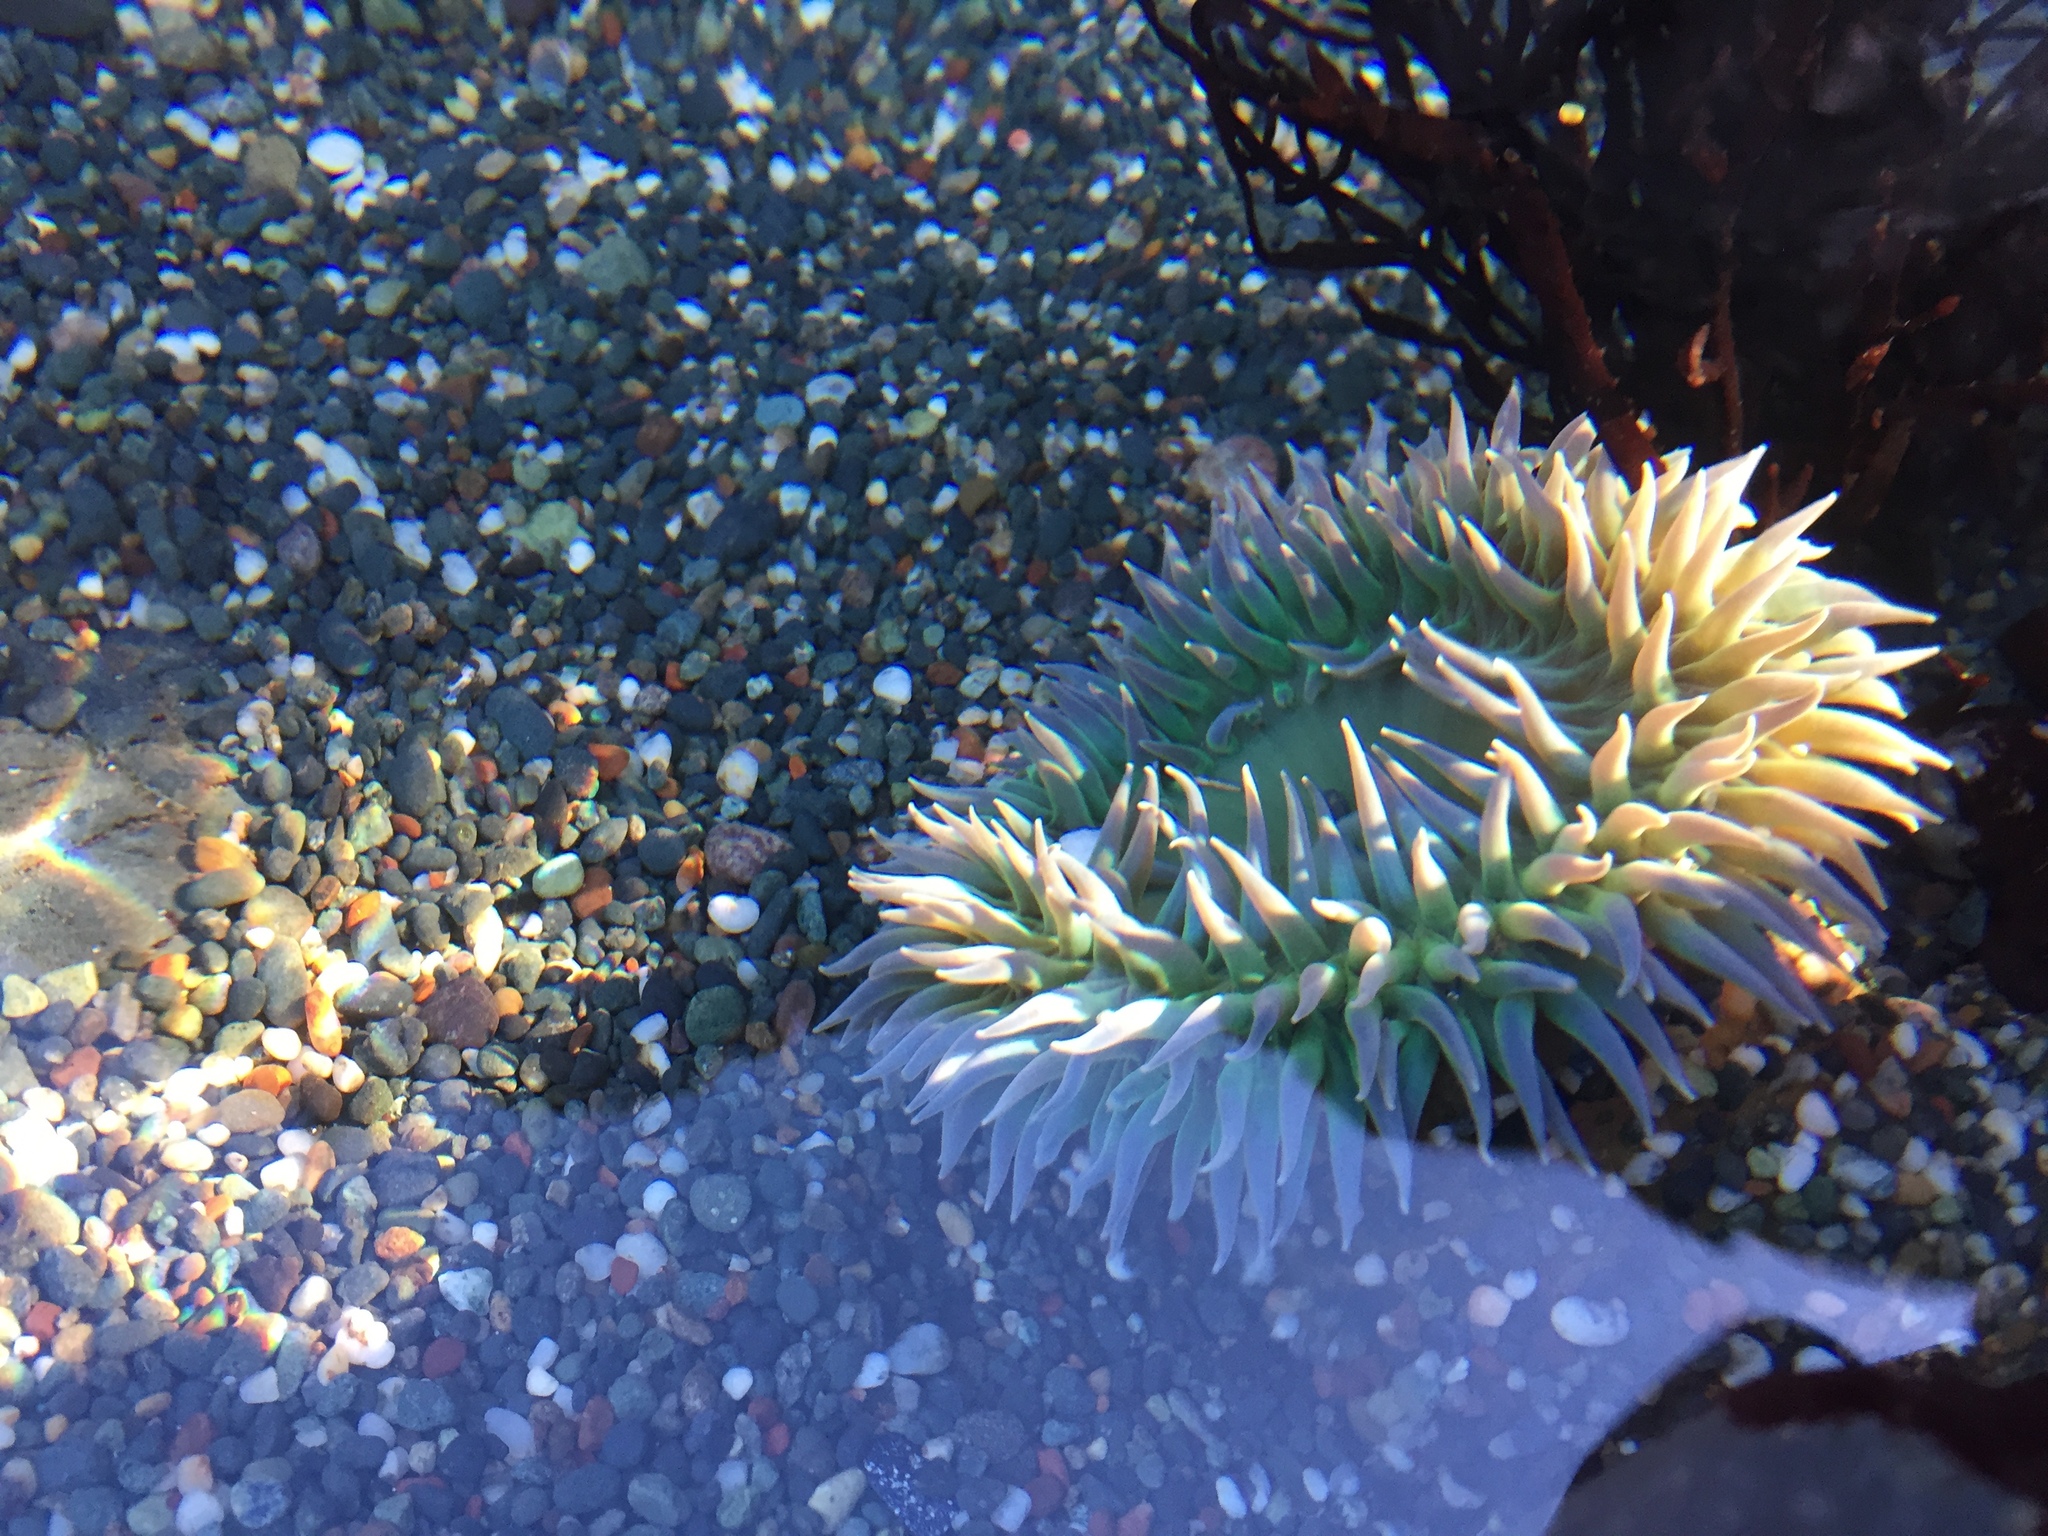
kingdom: Animalia
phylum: Cnidaria
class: Anthozoa
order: Actiniaria
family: Actiniidae
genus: Anthopleura
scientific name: Anthopleura xanthogrammica
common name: Giant green anemone
